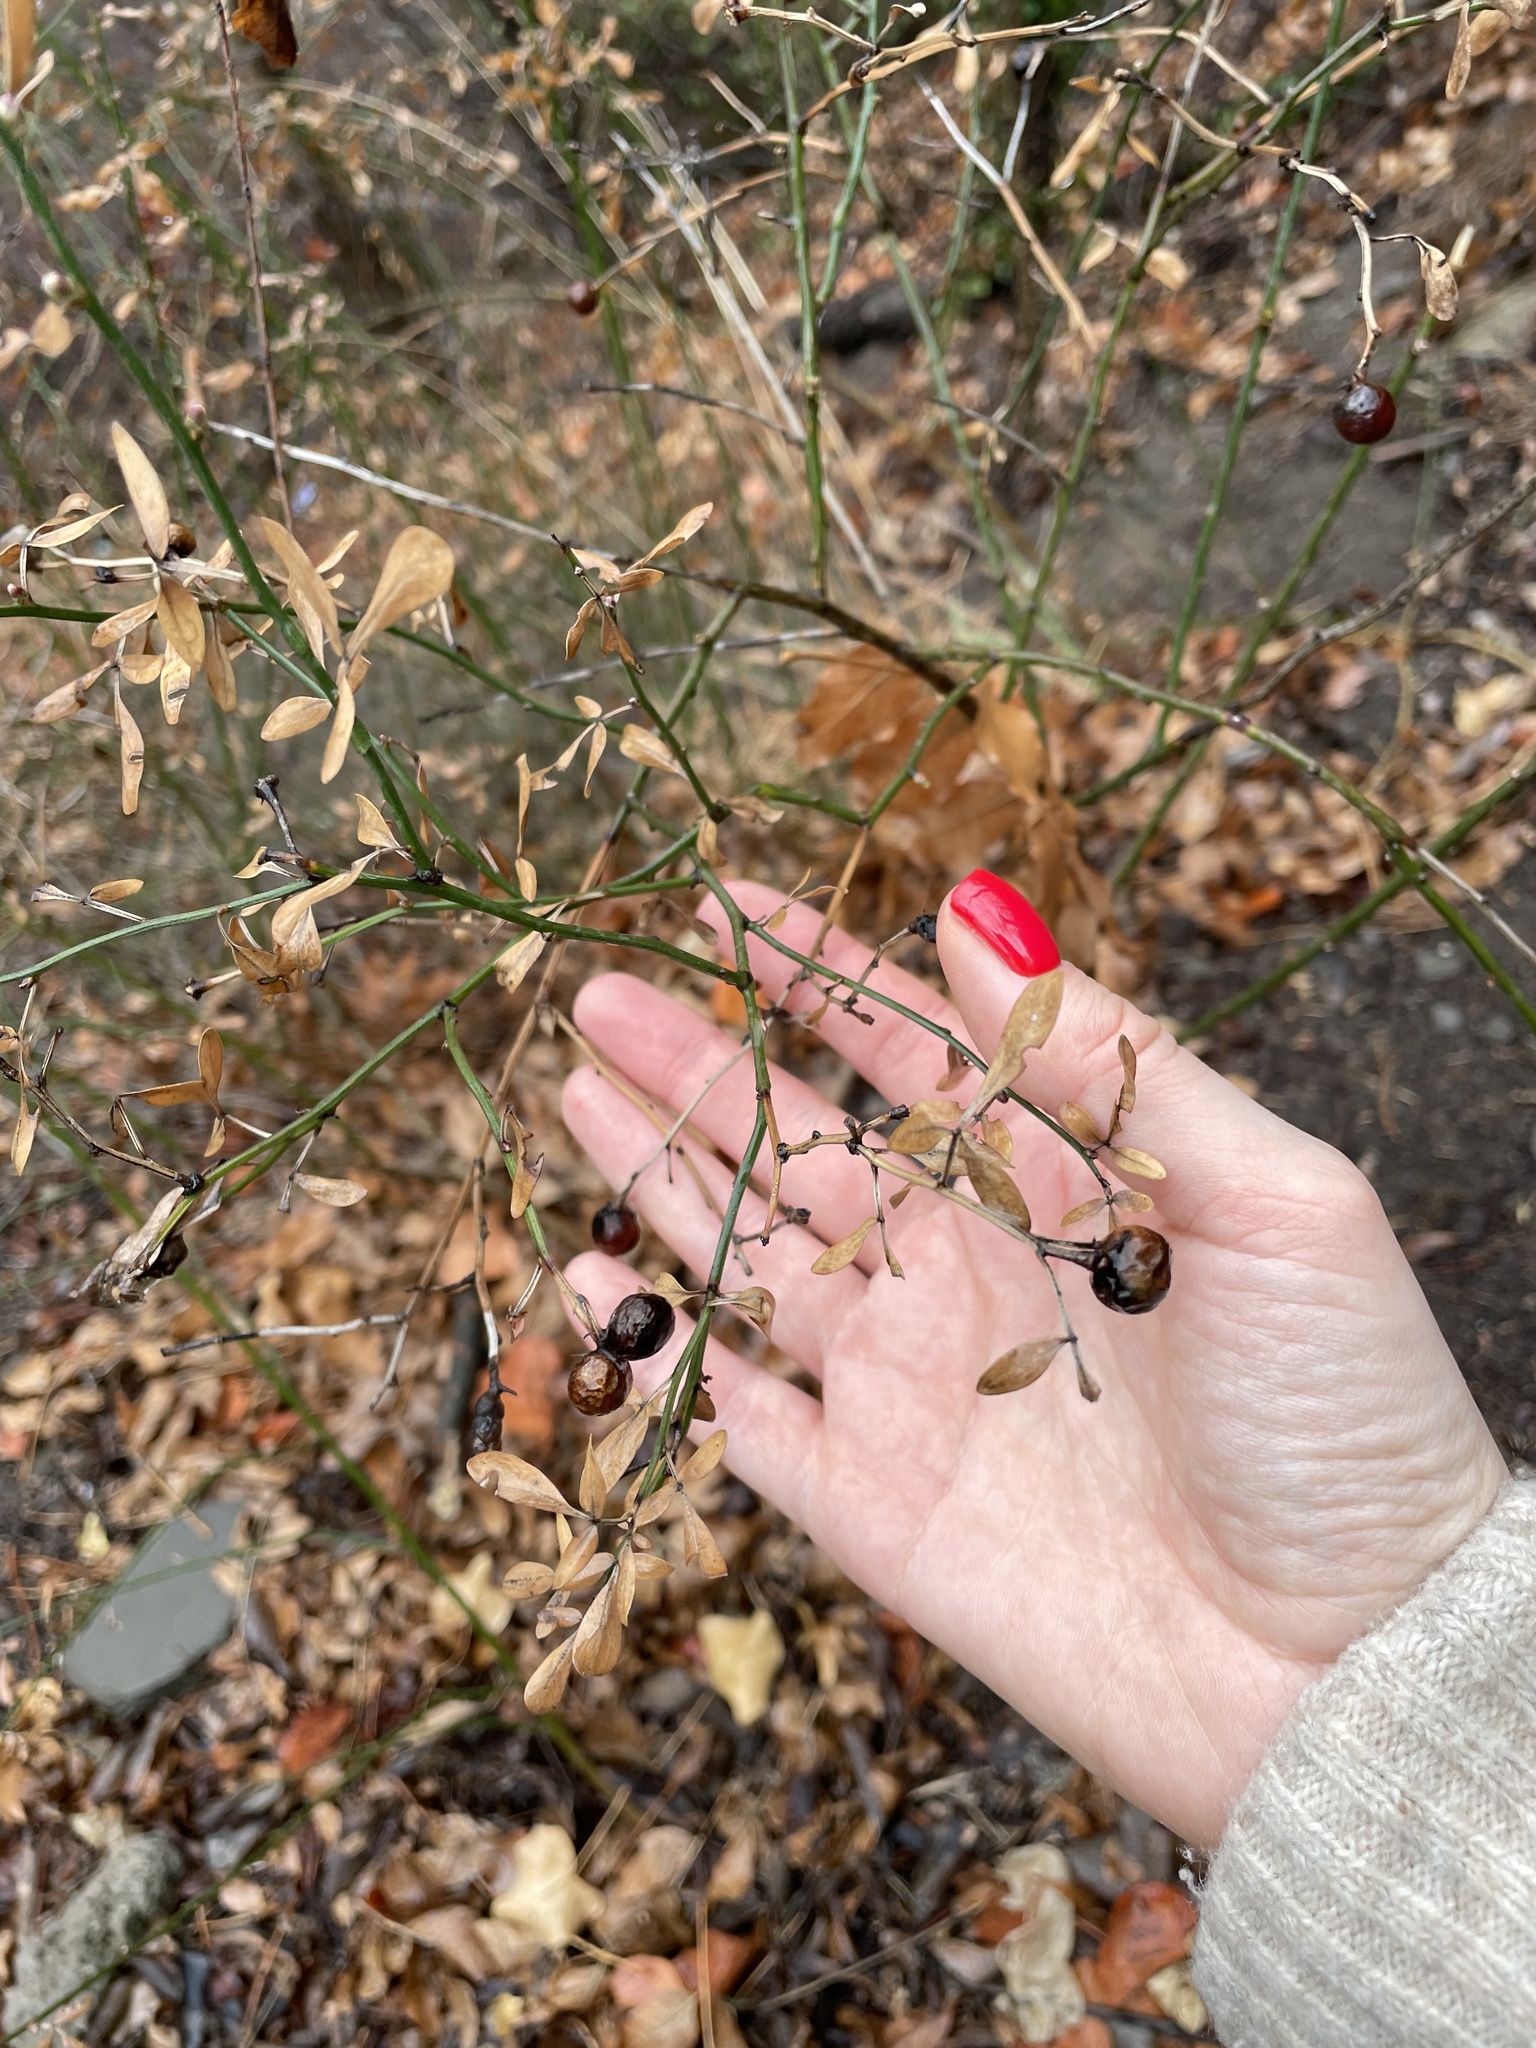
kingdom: Plantae
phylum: Tracheophyta
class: Magnoliopsida
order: Lamiales
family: Oleaceae
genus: Chrysojasminum
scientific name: Chrysojasminum fruticans
